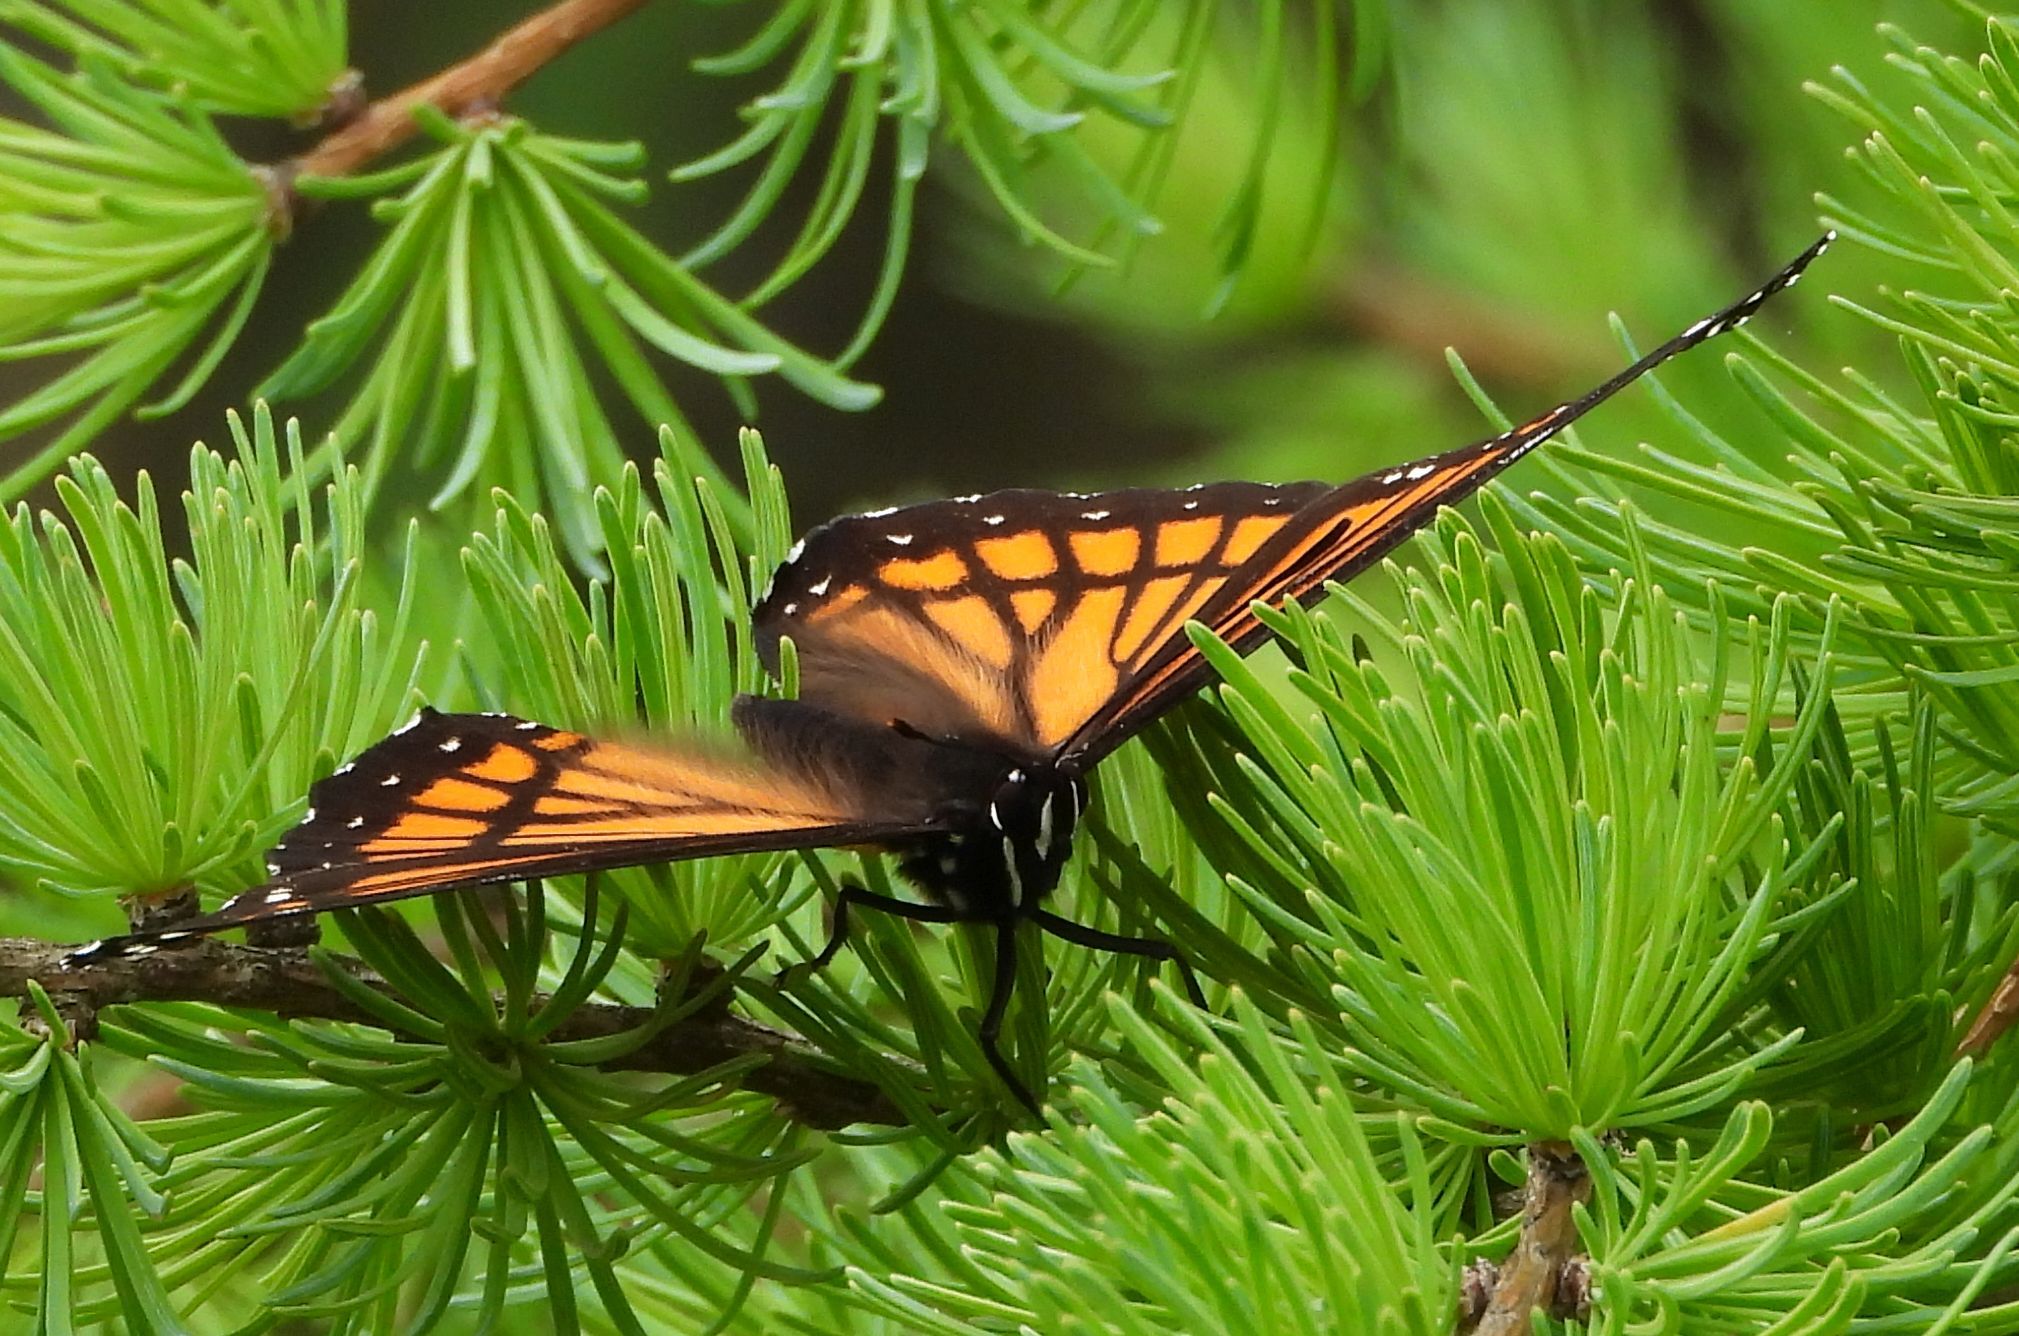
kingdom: Animalia
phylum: Arthropoda
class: Insecta
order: Lepidoptera
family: Nymphalidae
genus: Limenitis
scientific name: Limenitis archippus
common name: Viceroy
